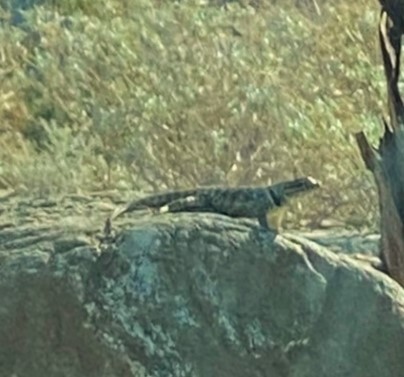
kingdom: Animalia
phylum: Chordata
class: Squamata
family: Phrynosomatidae
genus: Sceloporus
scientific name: Sceloporus magister
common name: Desert spiny lizard
